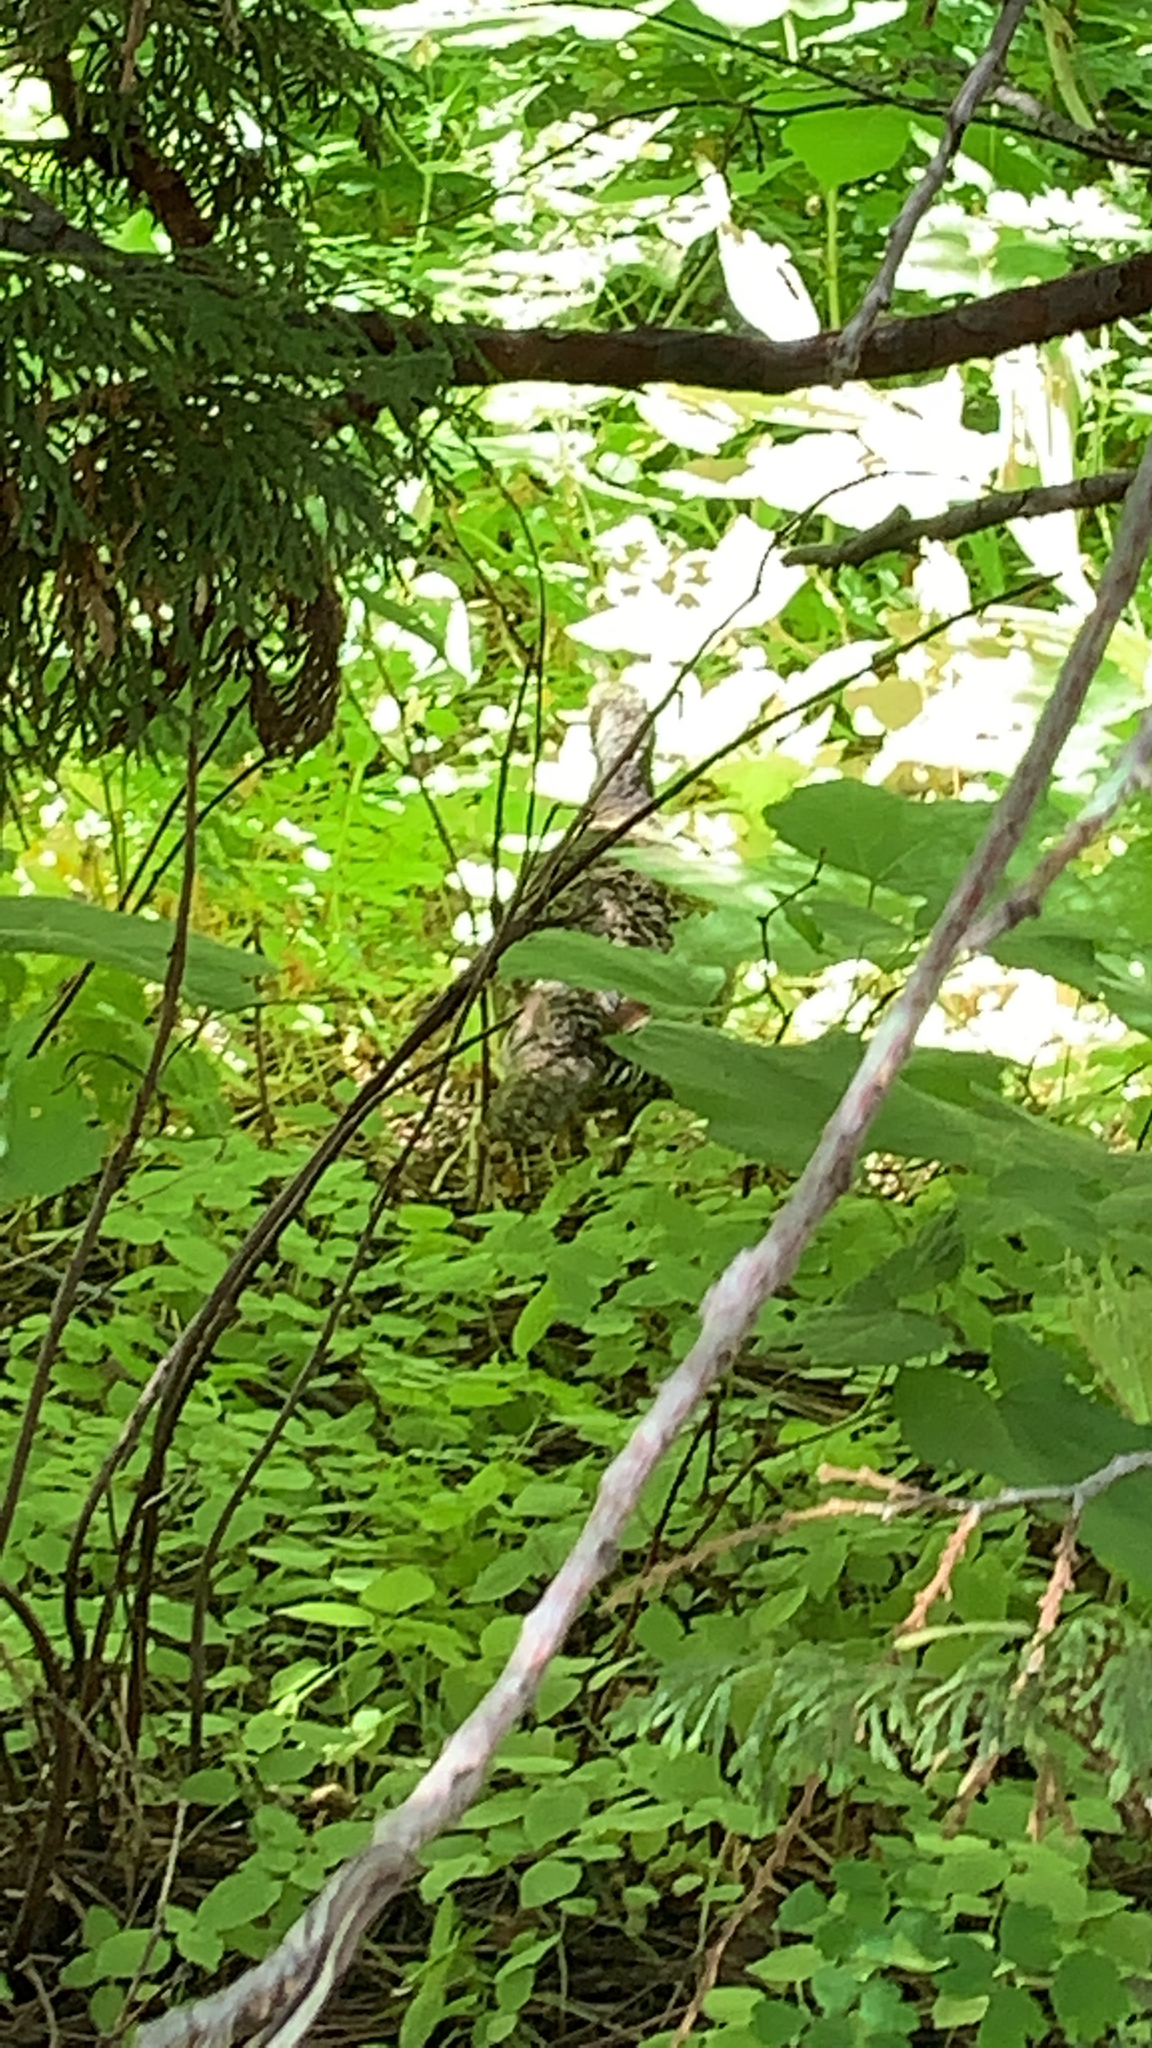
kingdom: Animalia
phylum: Chordata
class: Aves
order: Galliformes
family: Phasianidae
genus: Dendragapus
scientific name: Dendragapus fuliginosus
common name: Sooty grouse
